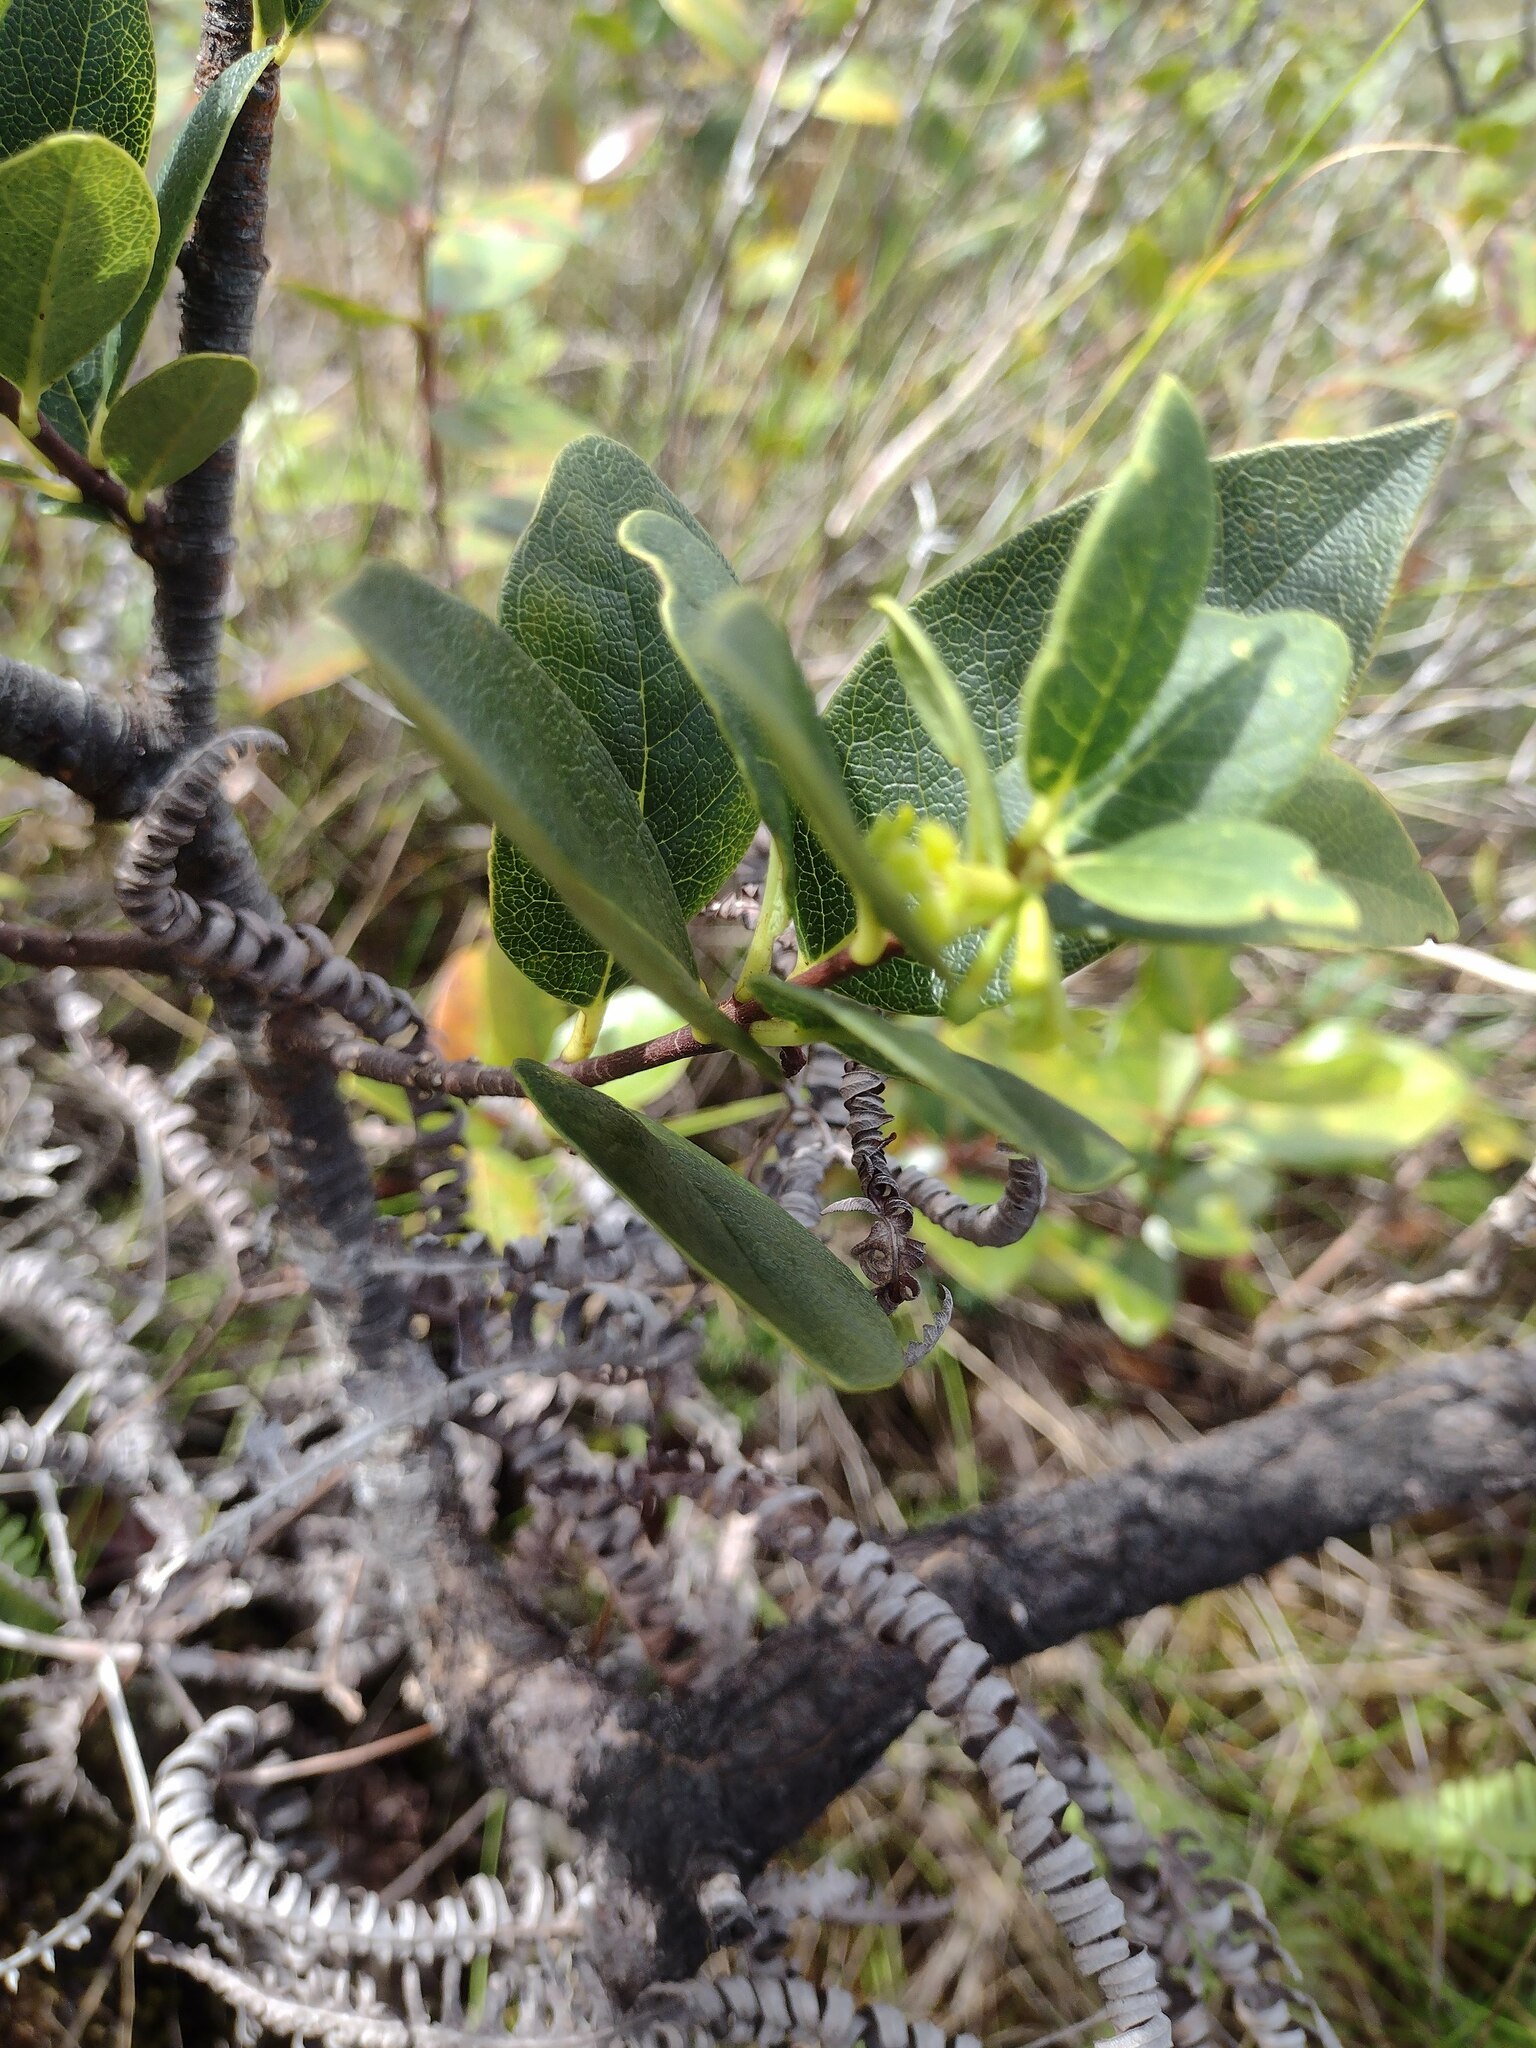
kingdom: Plantae
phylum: Tracheophyta
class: Magnoliopsida
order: Malvales
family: Thymelaeaceae
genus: Wikstroemia
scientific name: Wikstroemia oahuensis
